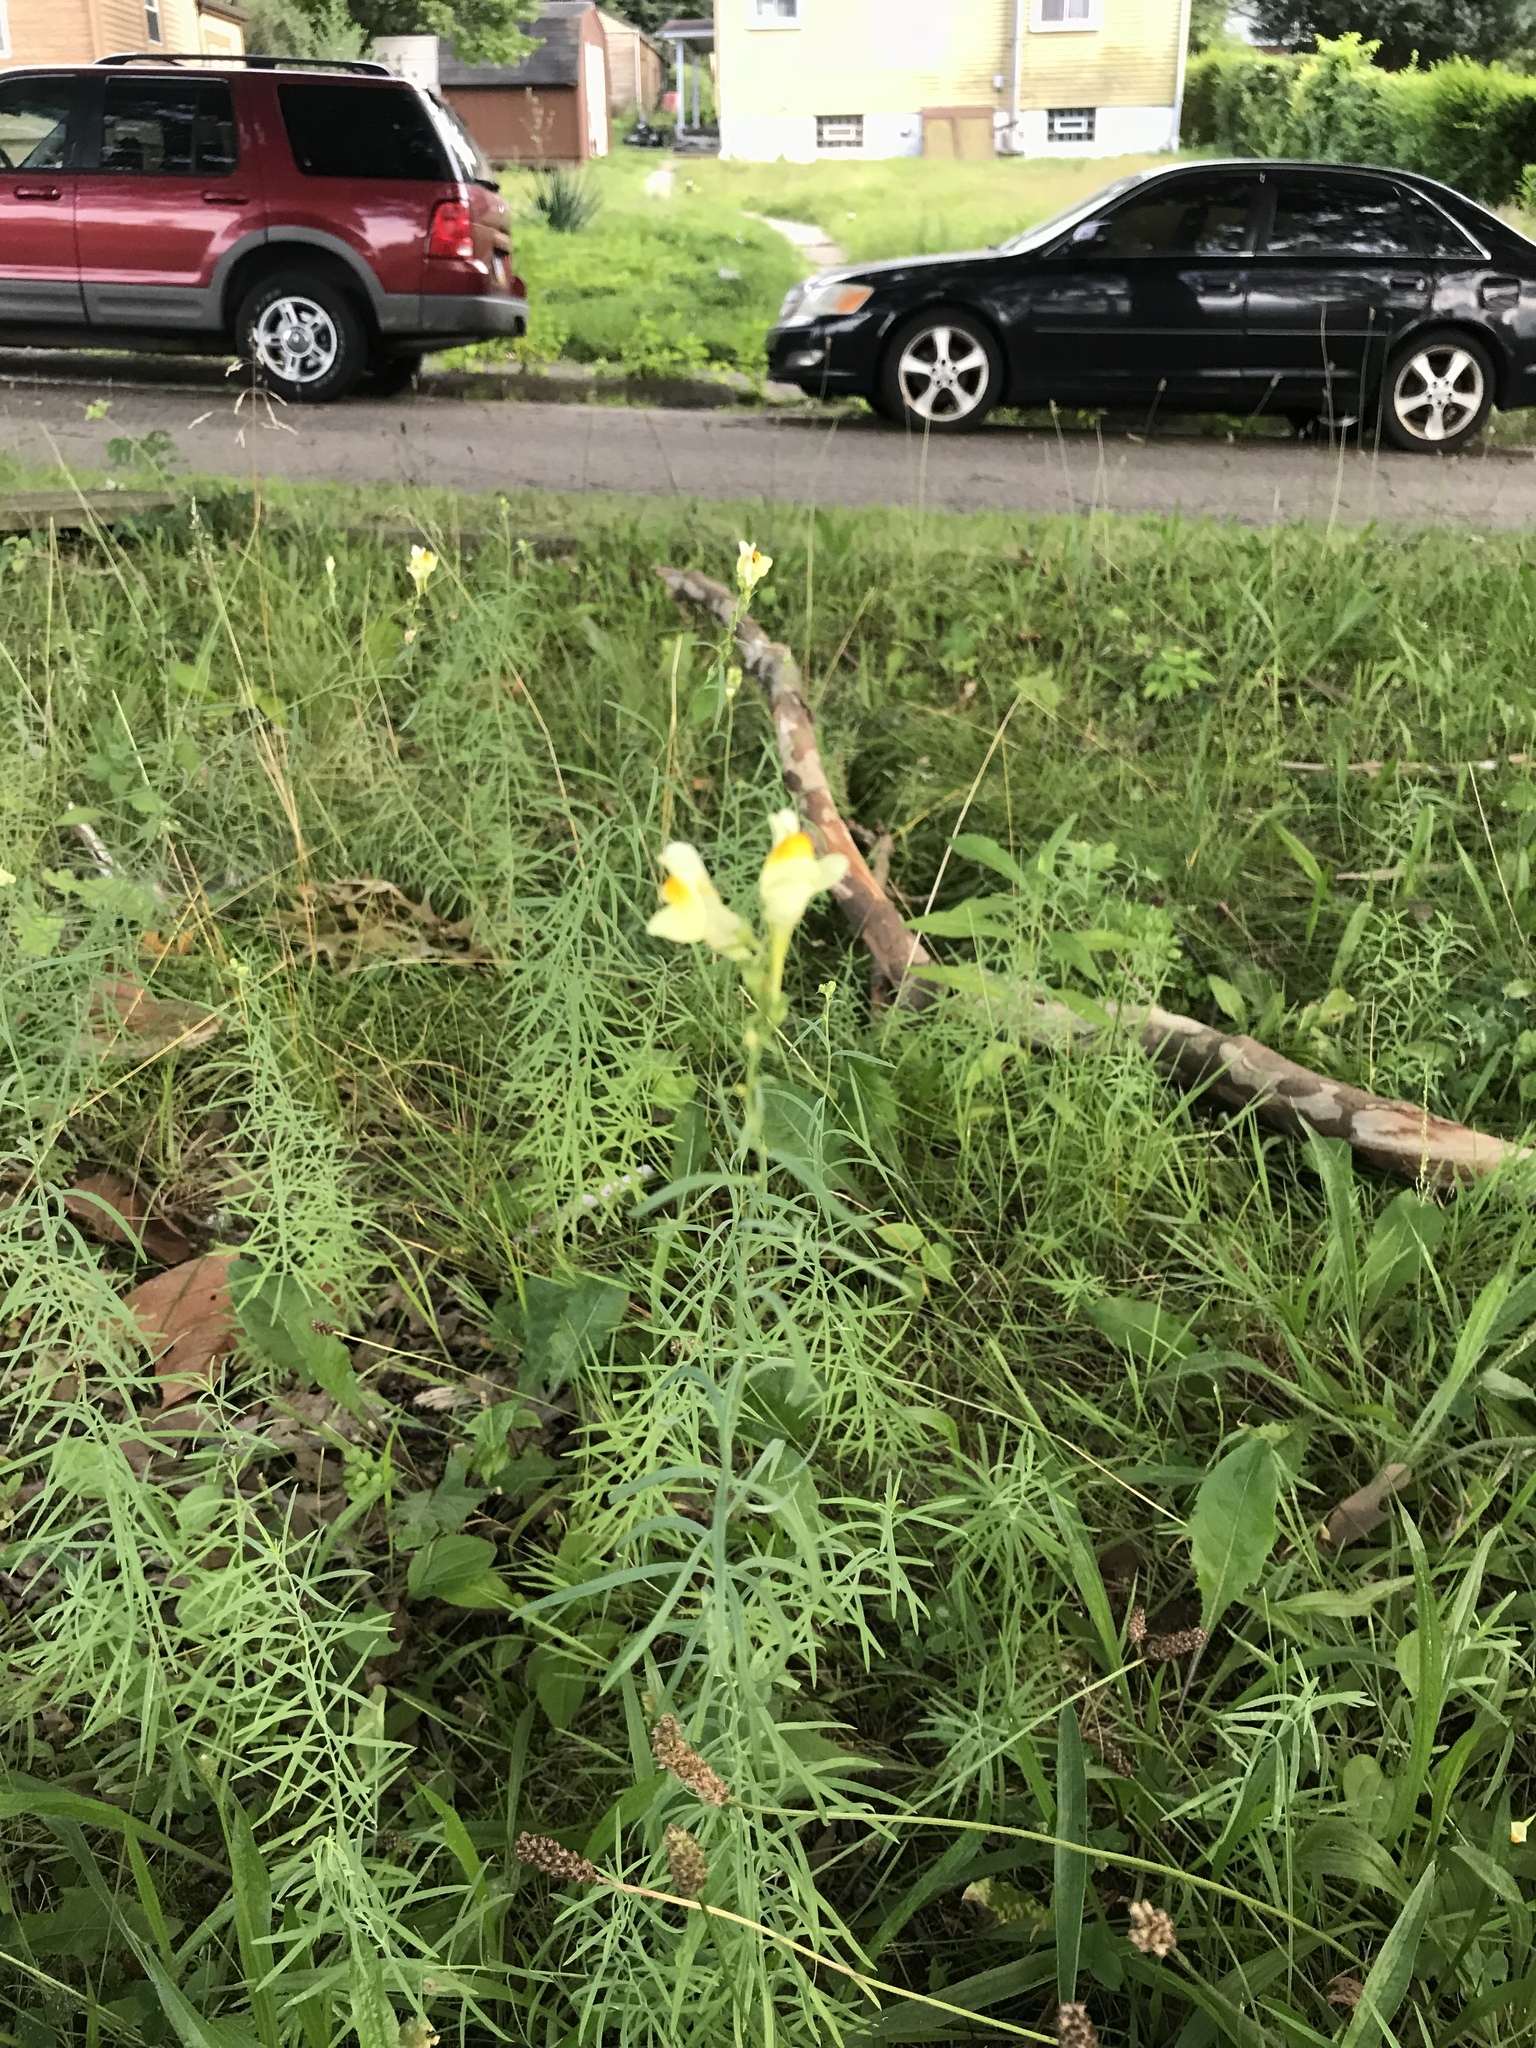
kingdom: Plantae
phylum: Tracheophyta
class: Magnoliopsida
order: Lamiales
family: Plantaginaceae
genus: Linaria
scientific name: Linaria vulgaris
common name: Butter and eggs
